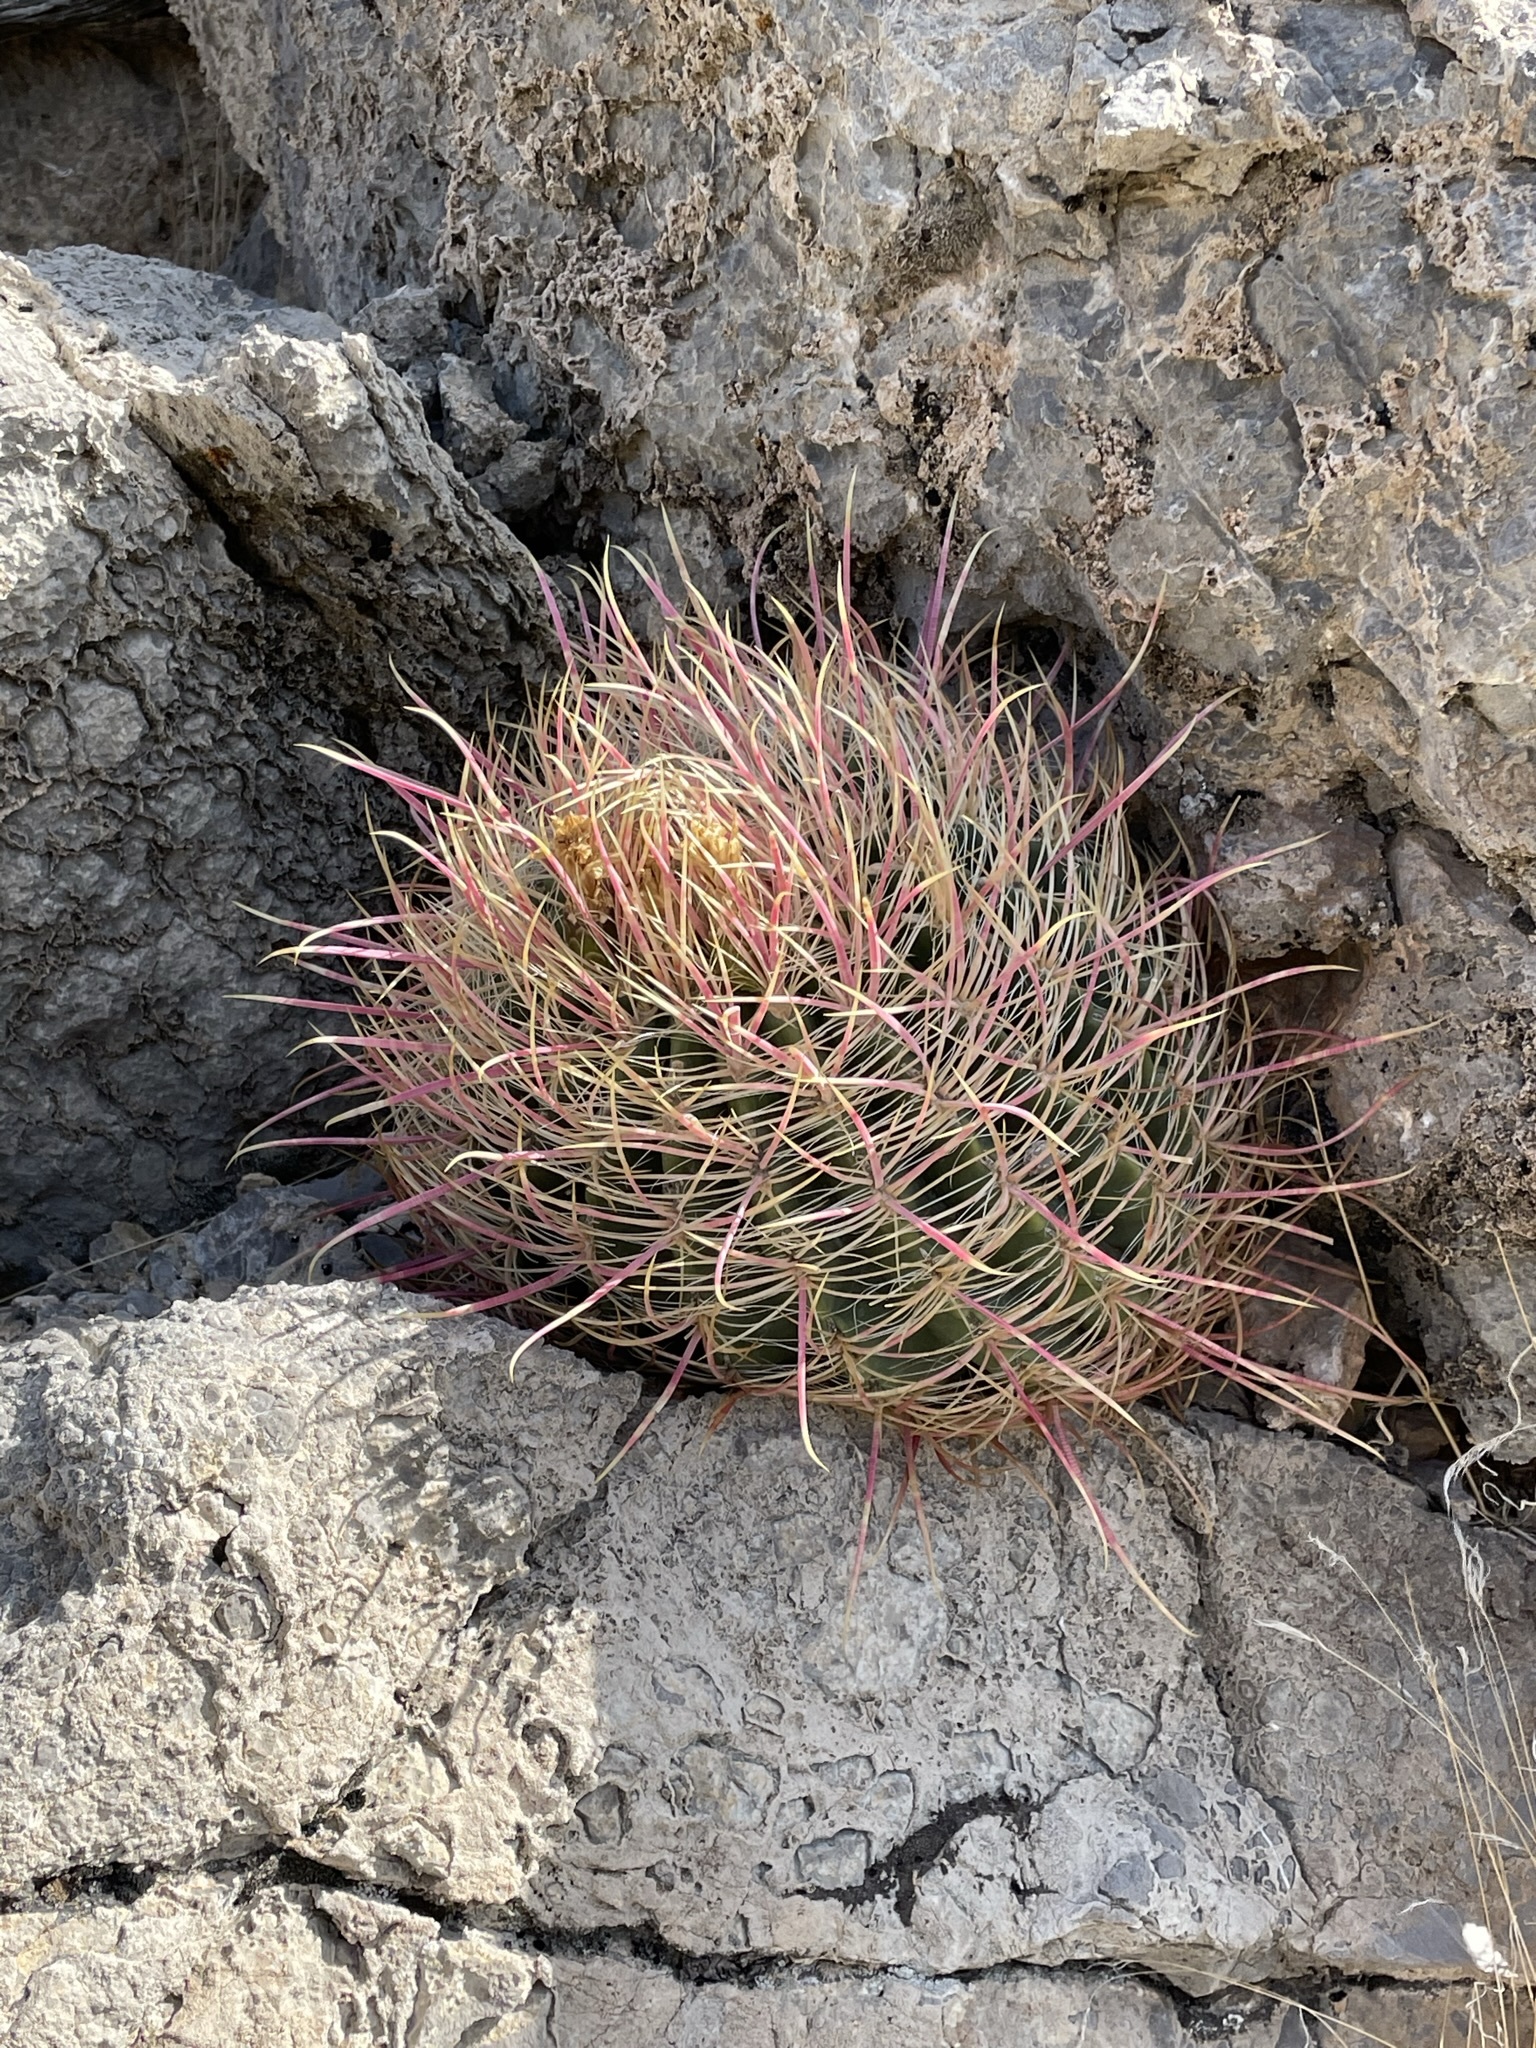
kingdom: Plantae
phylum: Tracheophyta
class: Magnoliopsida
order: Caryophyllales
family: Cactaceae
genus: Ferocactus
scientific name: Ferocactus cylindraceus
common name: California barrel cactus
